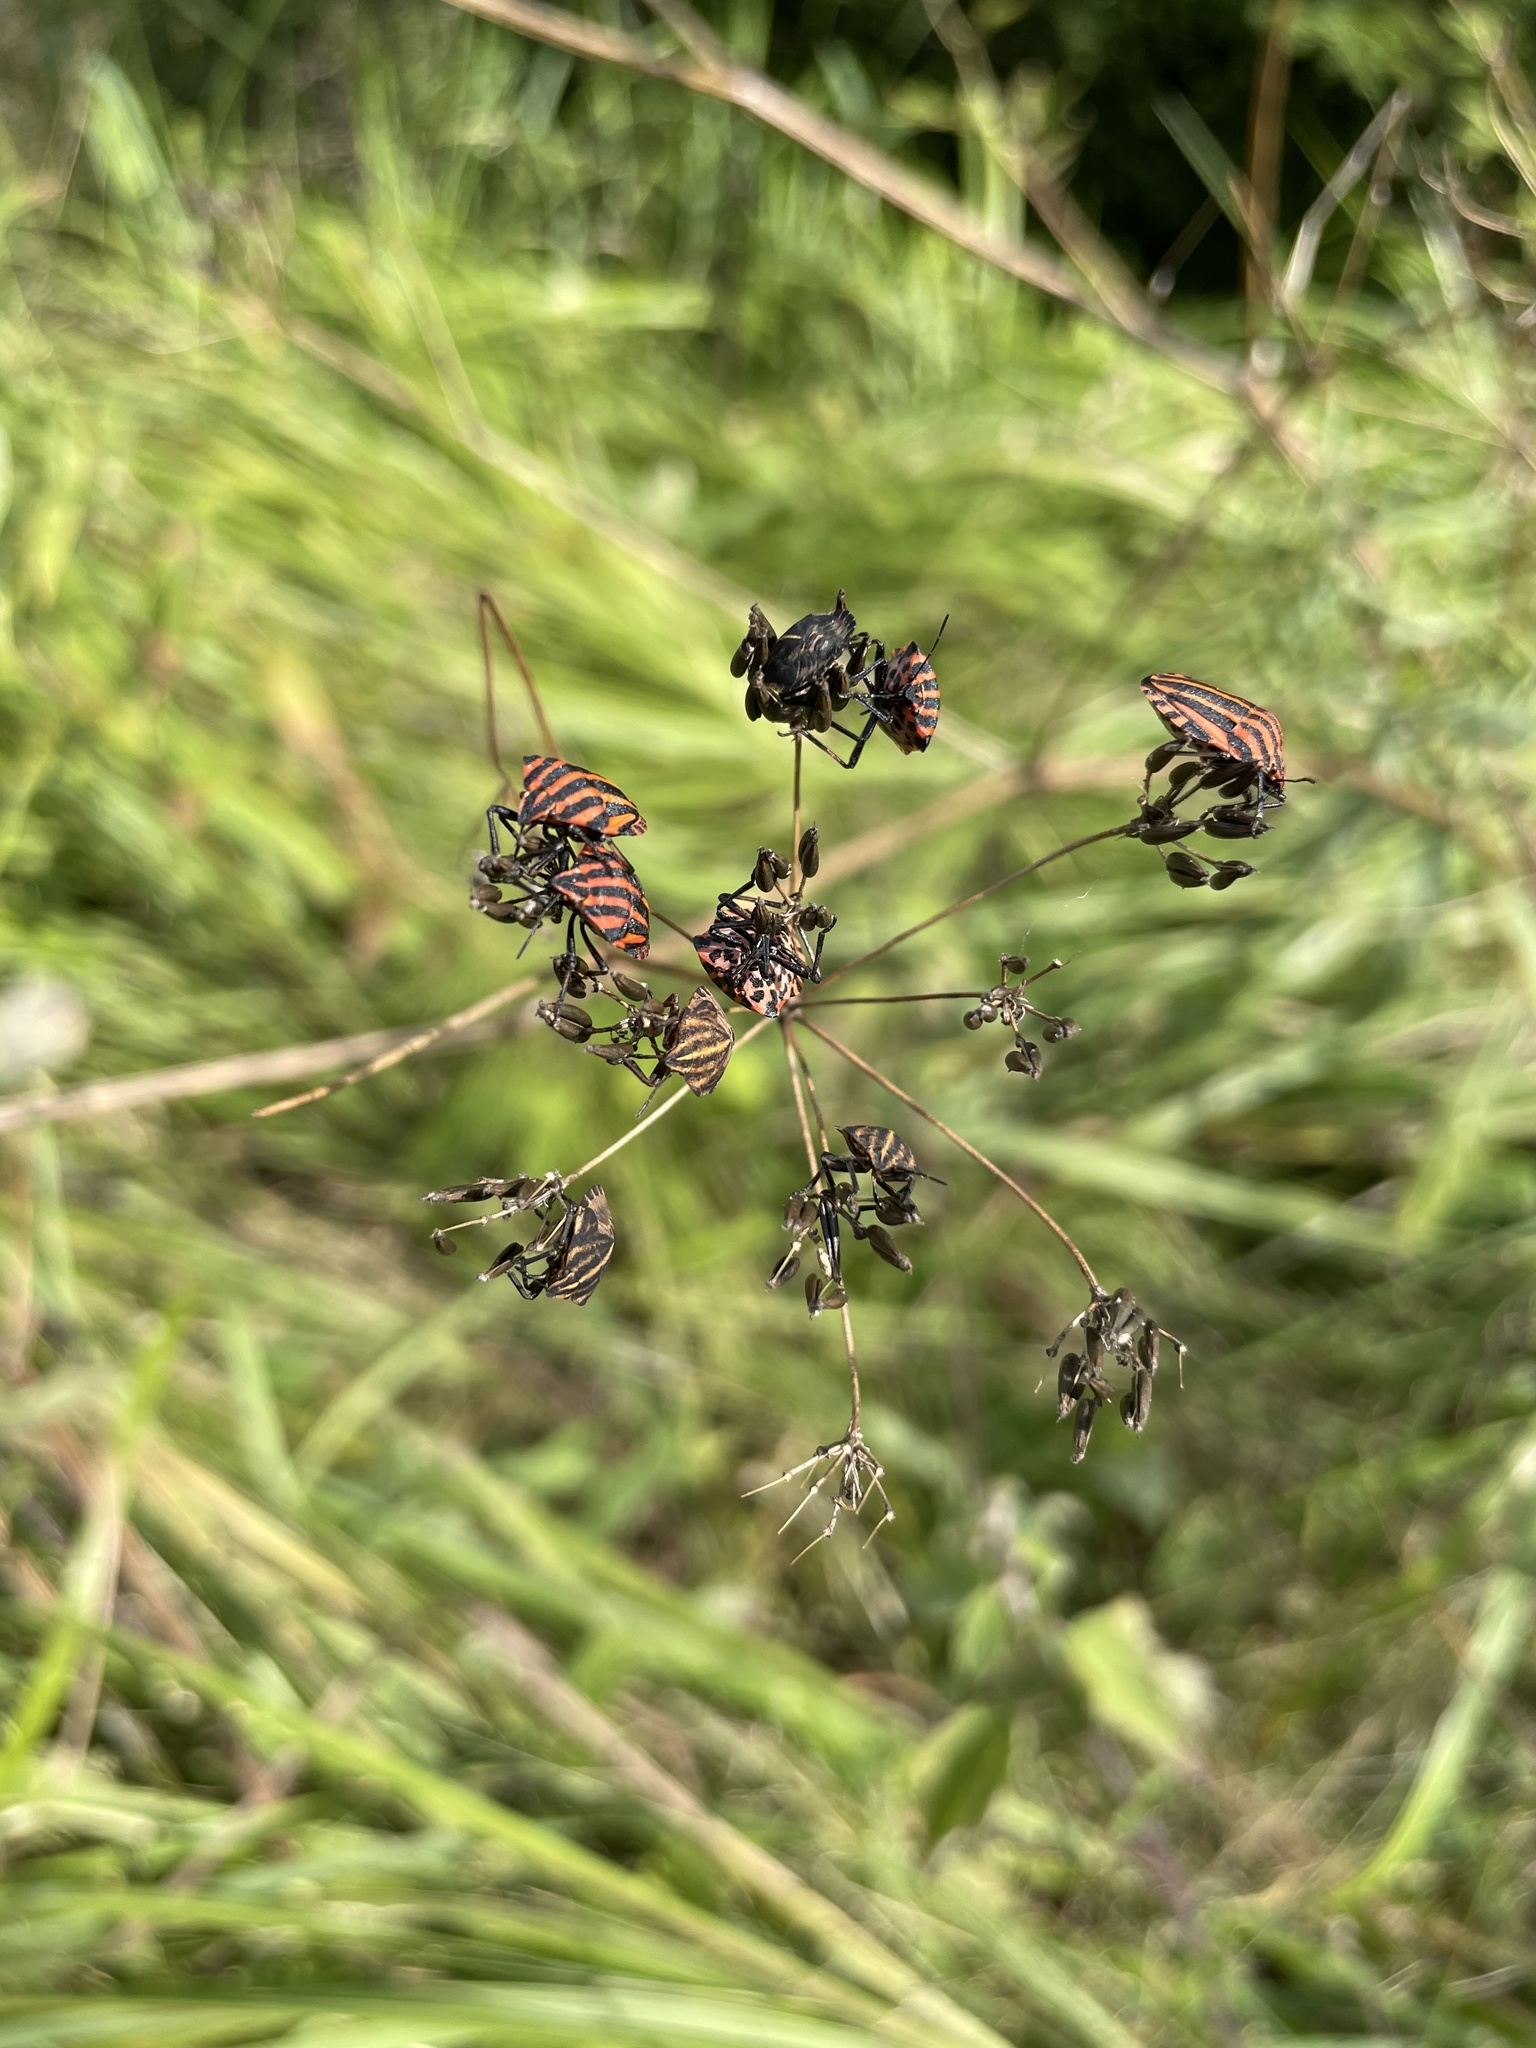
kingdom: Animalia
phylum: Arthropoda
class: Insecta
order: Hemiptera
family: Pentatomidae
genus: Graphosoma
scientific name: Graphosoma italicum
